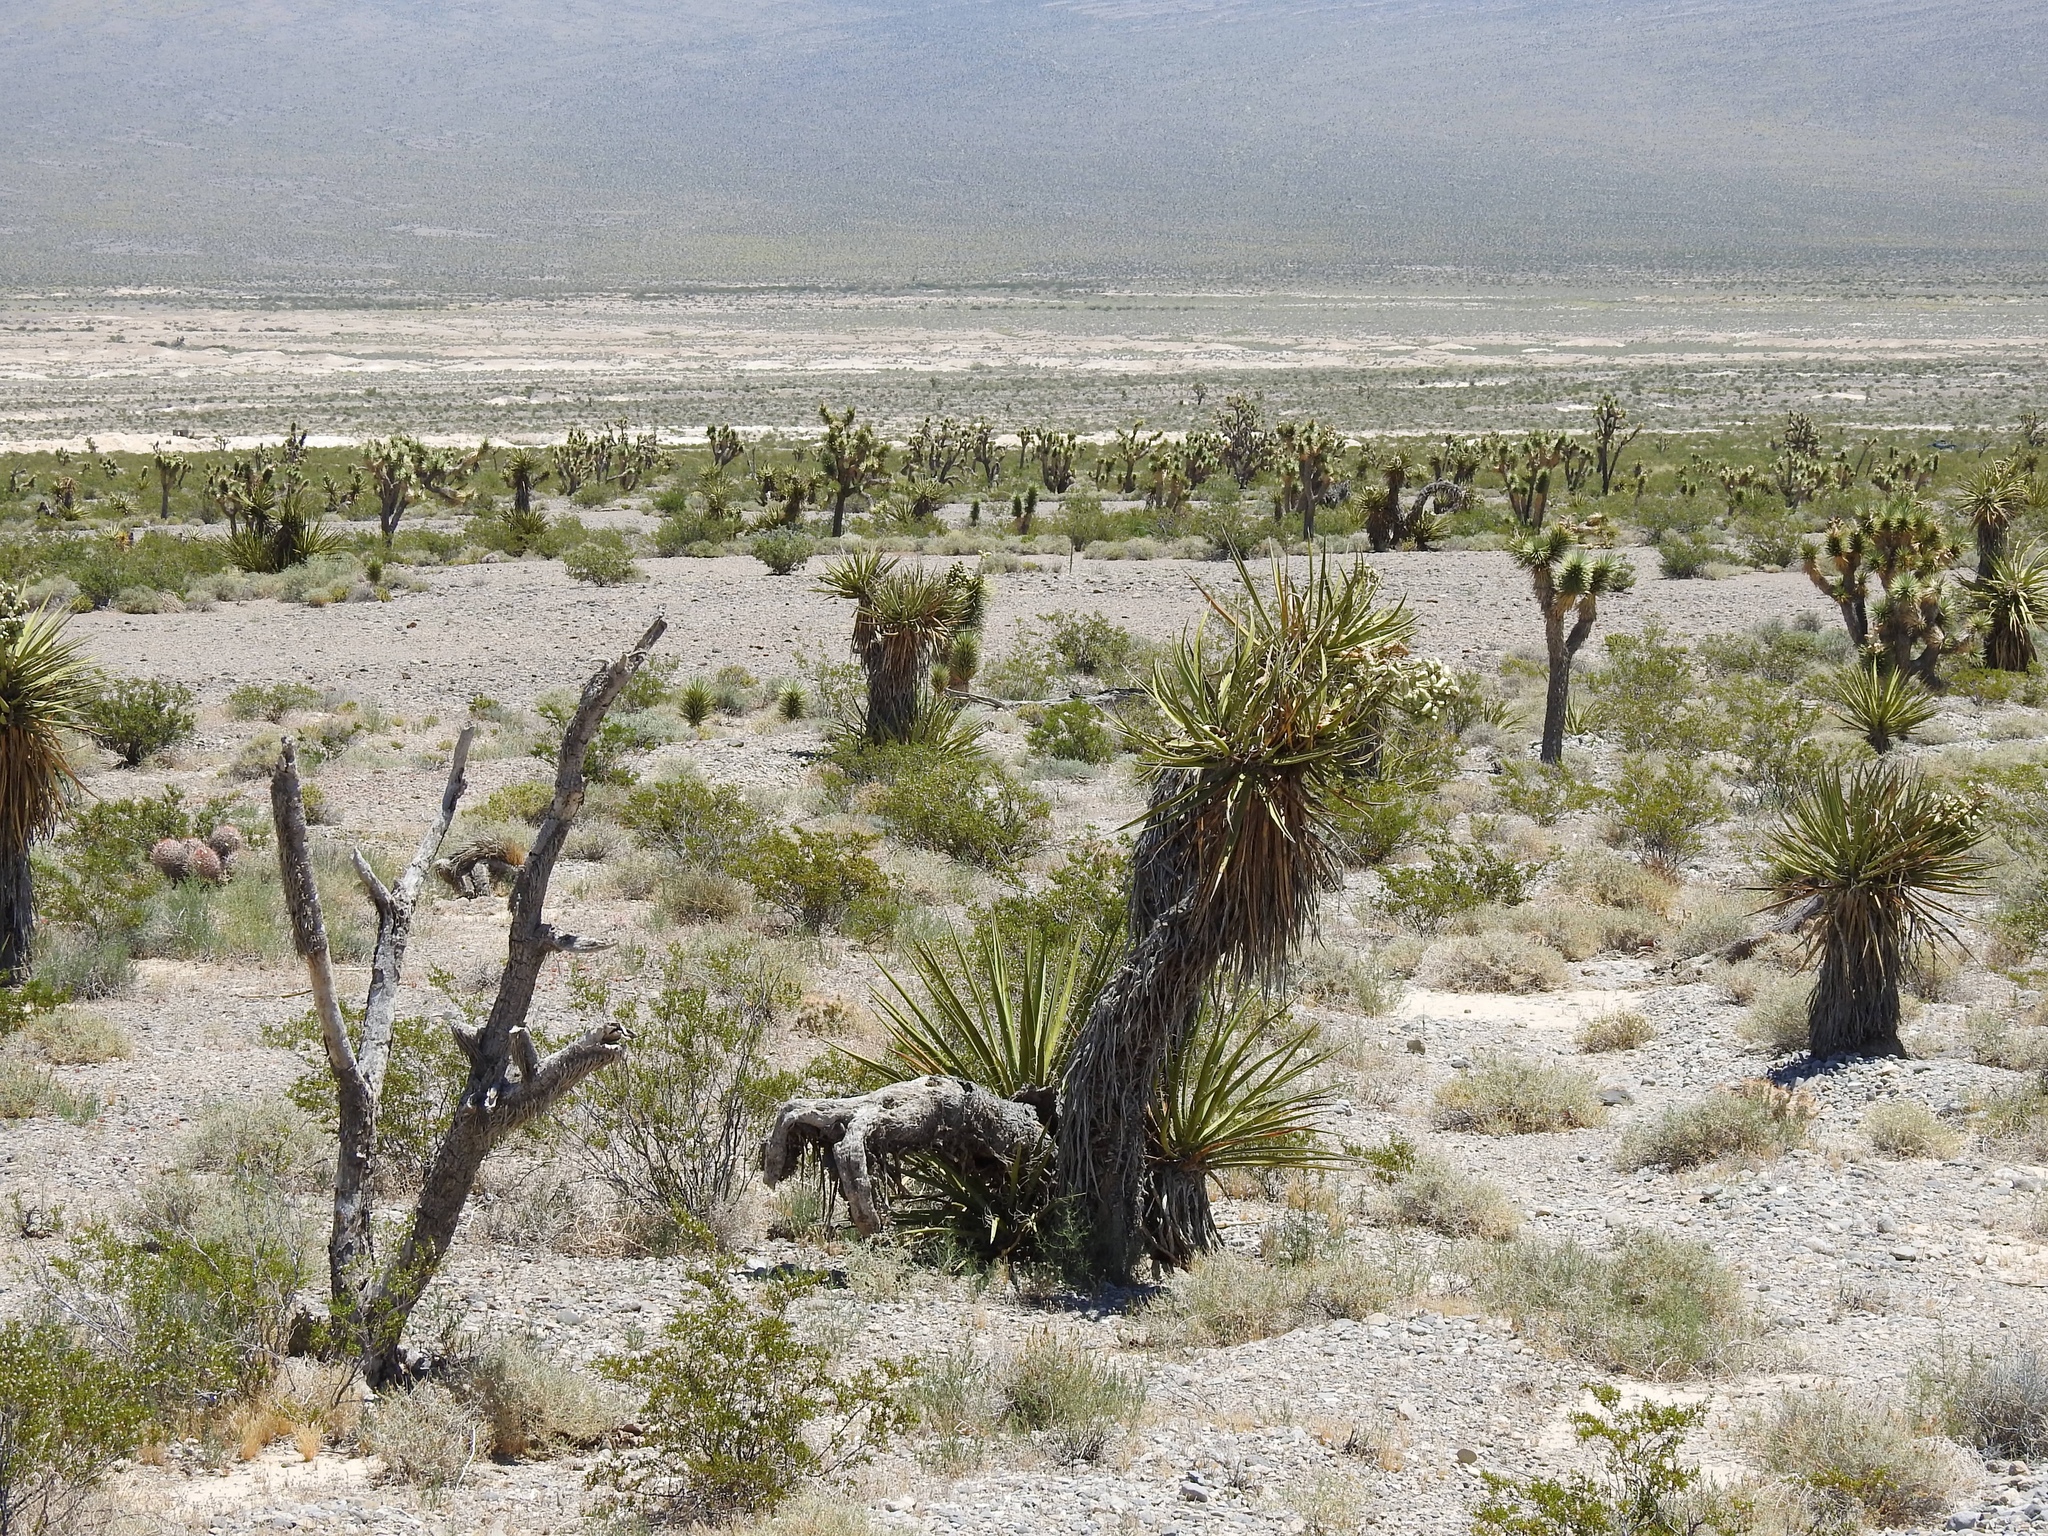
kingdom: Plantae
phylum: Tracheophyta
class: Liliopsida
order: Asparagales
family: Asparagaceae
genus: Yucca
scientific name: Yucca schidigera
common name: Mojave yucca
